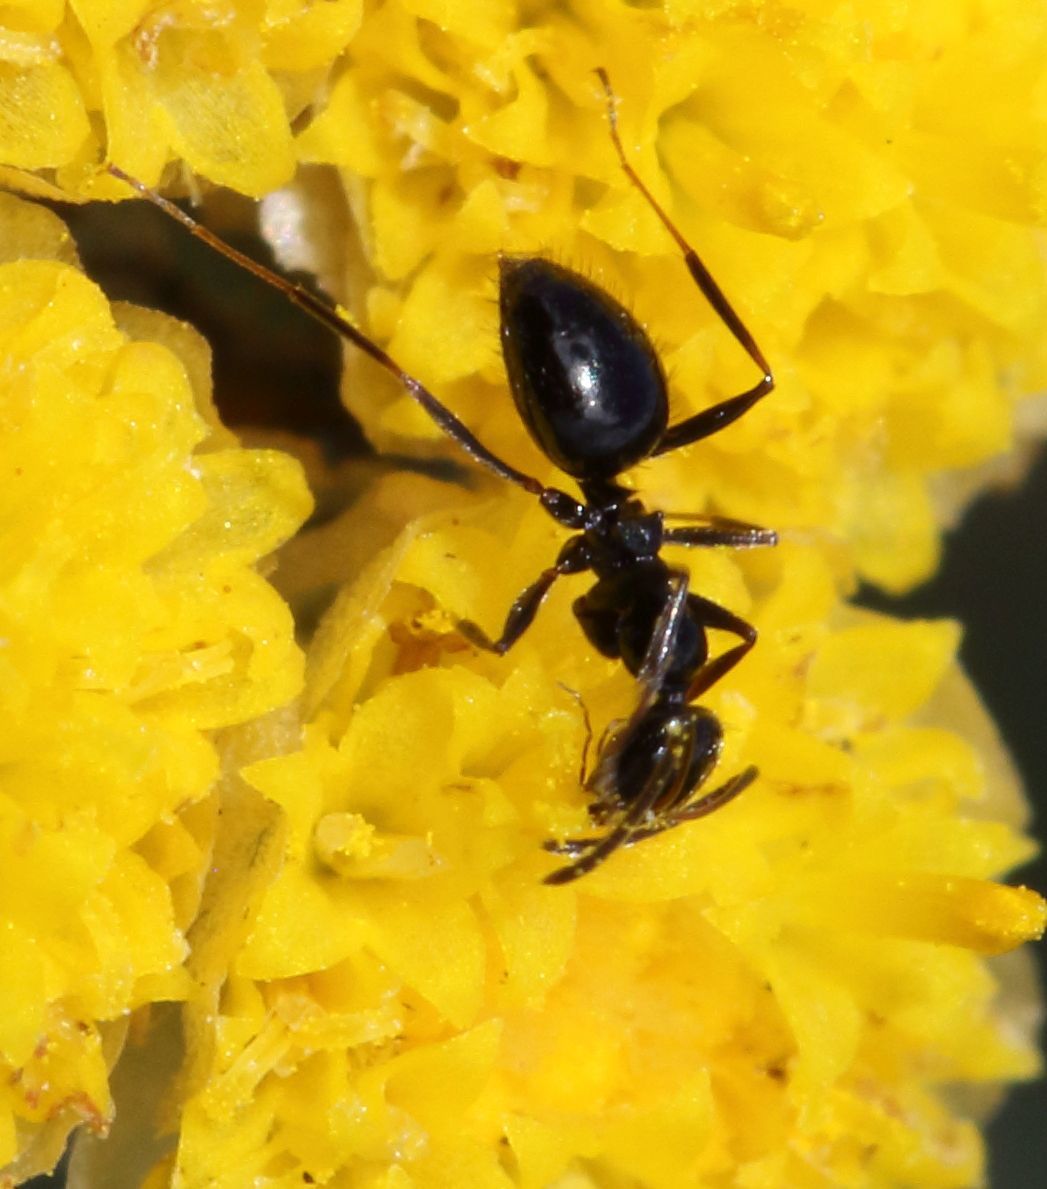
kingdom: Animalia
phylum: Arthropoda
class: Insecta
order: Hymenoptera
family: Formicidae
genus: Lepisiota
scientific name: Lepisiota capensis
